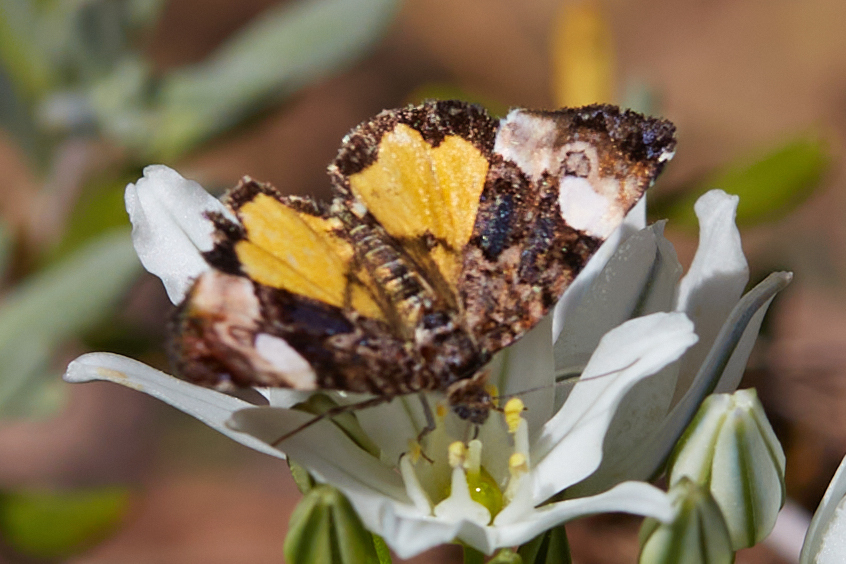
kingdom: Animalia
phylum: Arthropoda
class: Insecta
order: Lepidoptera
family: Noctuidae
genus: Annaphila
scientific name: Annaphila lithosina
